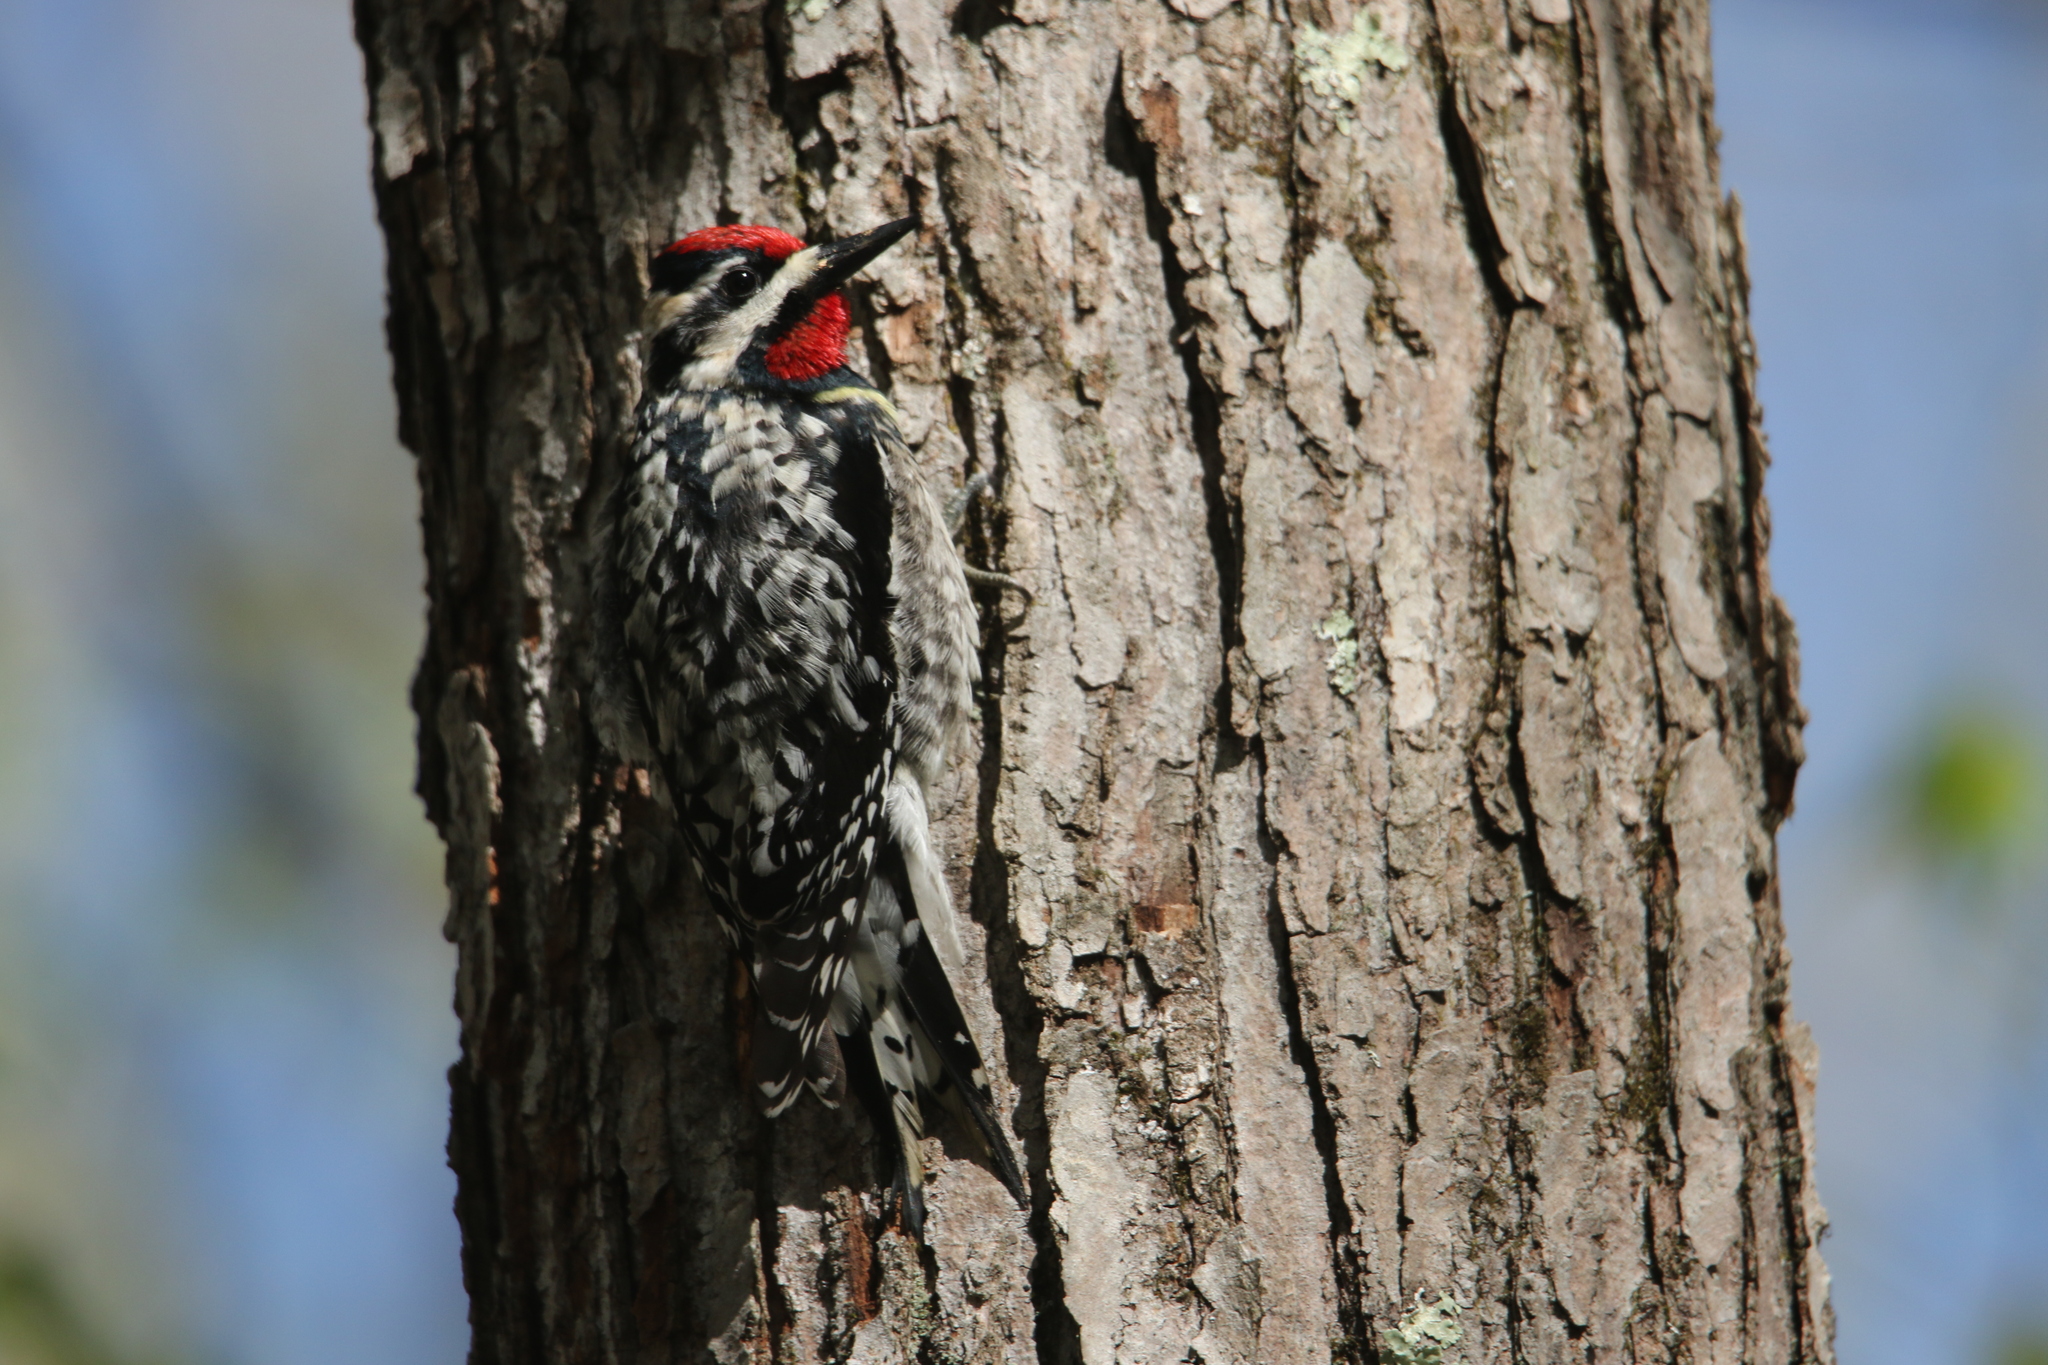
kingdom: Animalia
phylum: Chordata
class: Aves
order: Piciformes
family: Picidae
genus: Sphyrapicus
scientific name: Sphyrapicus varius
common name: Yellow-bellied sapsucker
